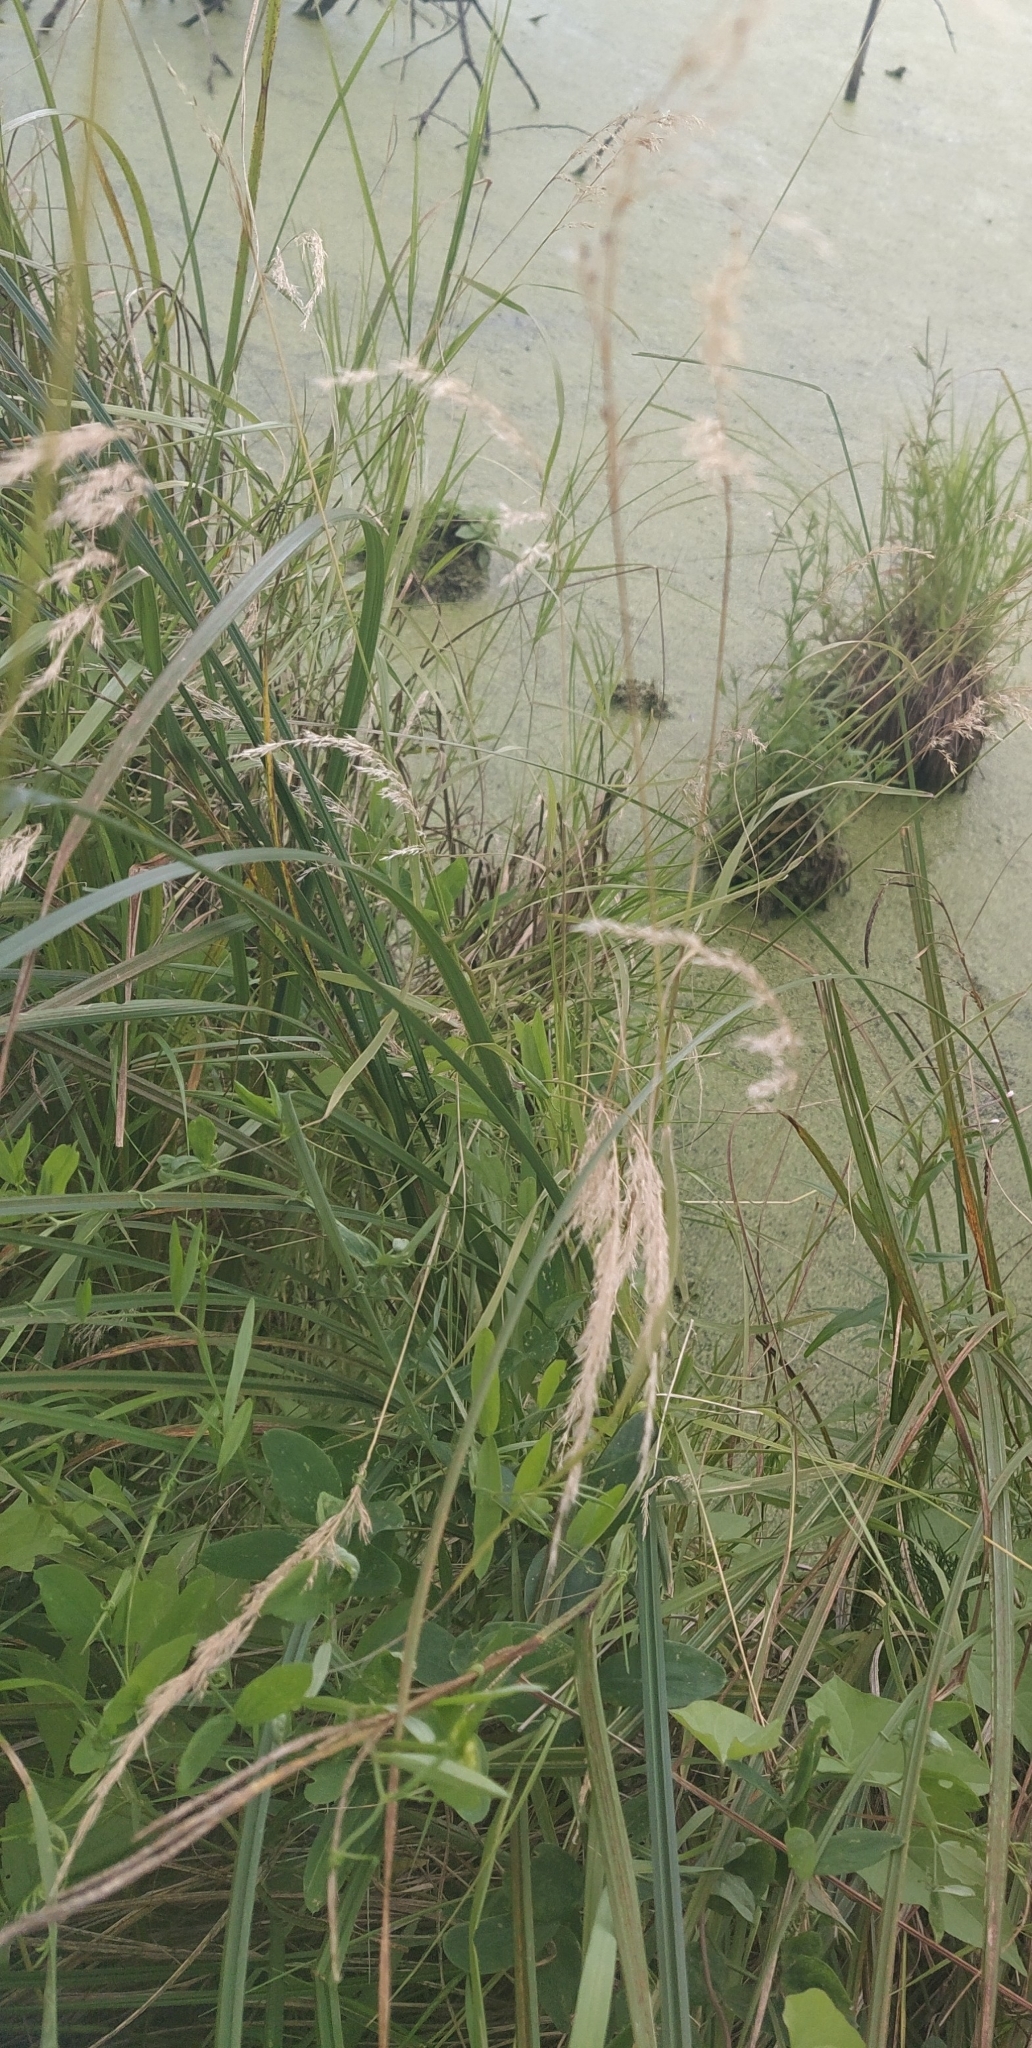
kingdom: Plantae
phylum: Tracheophyta
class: Liliopsida
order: Poales
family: Poaceae
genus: Calamagrostis
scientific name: Calamagrostis canescens
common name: Purple small-reed
